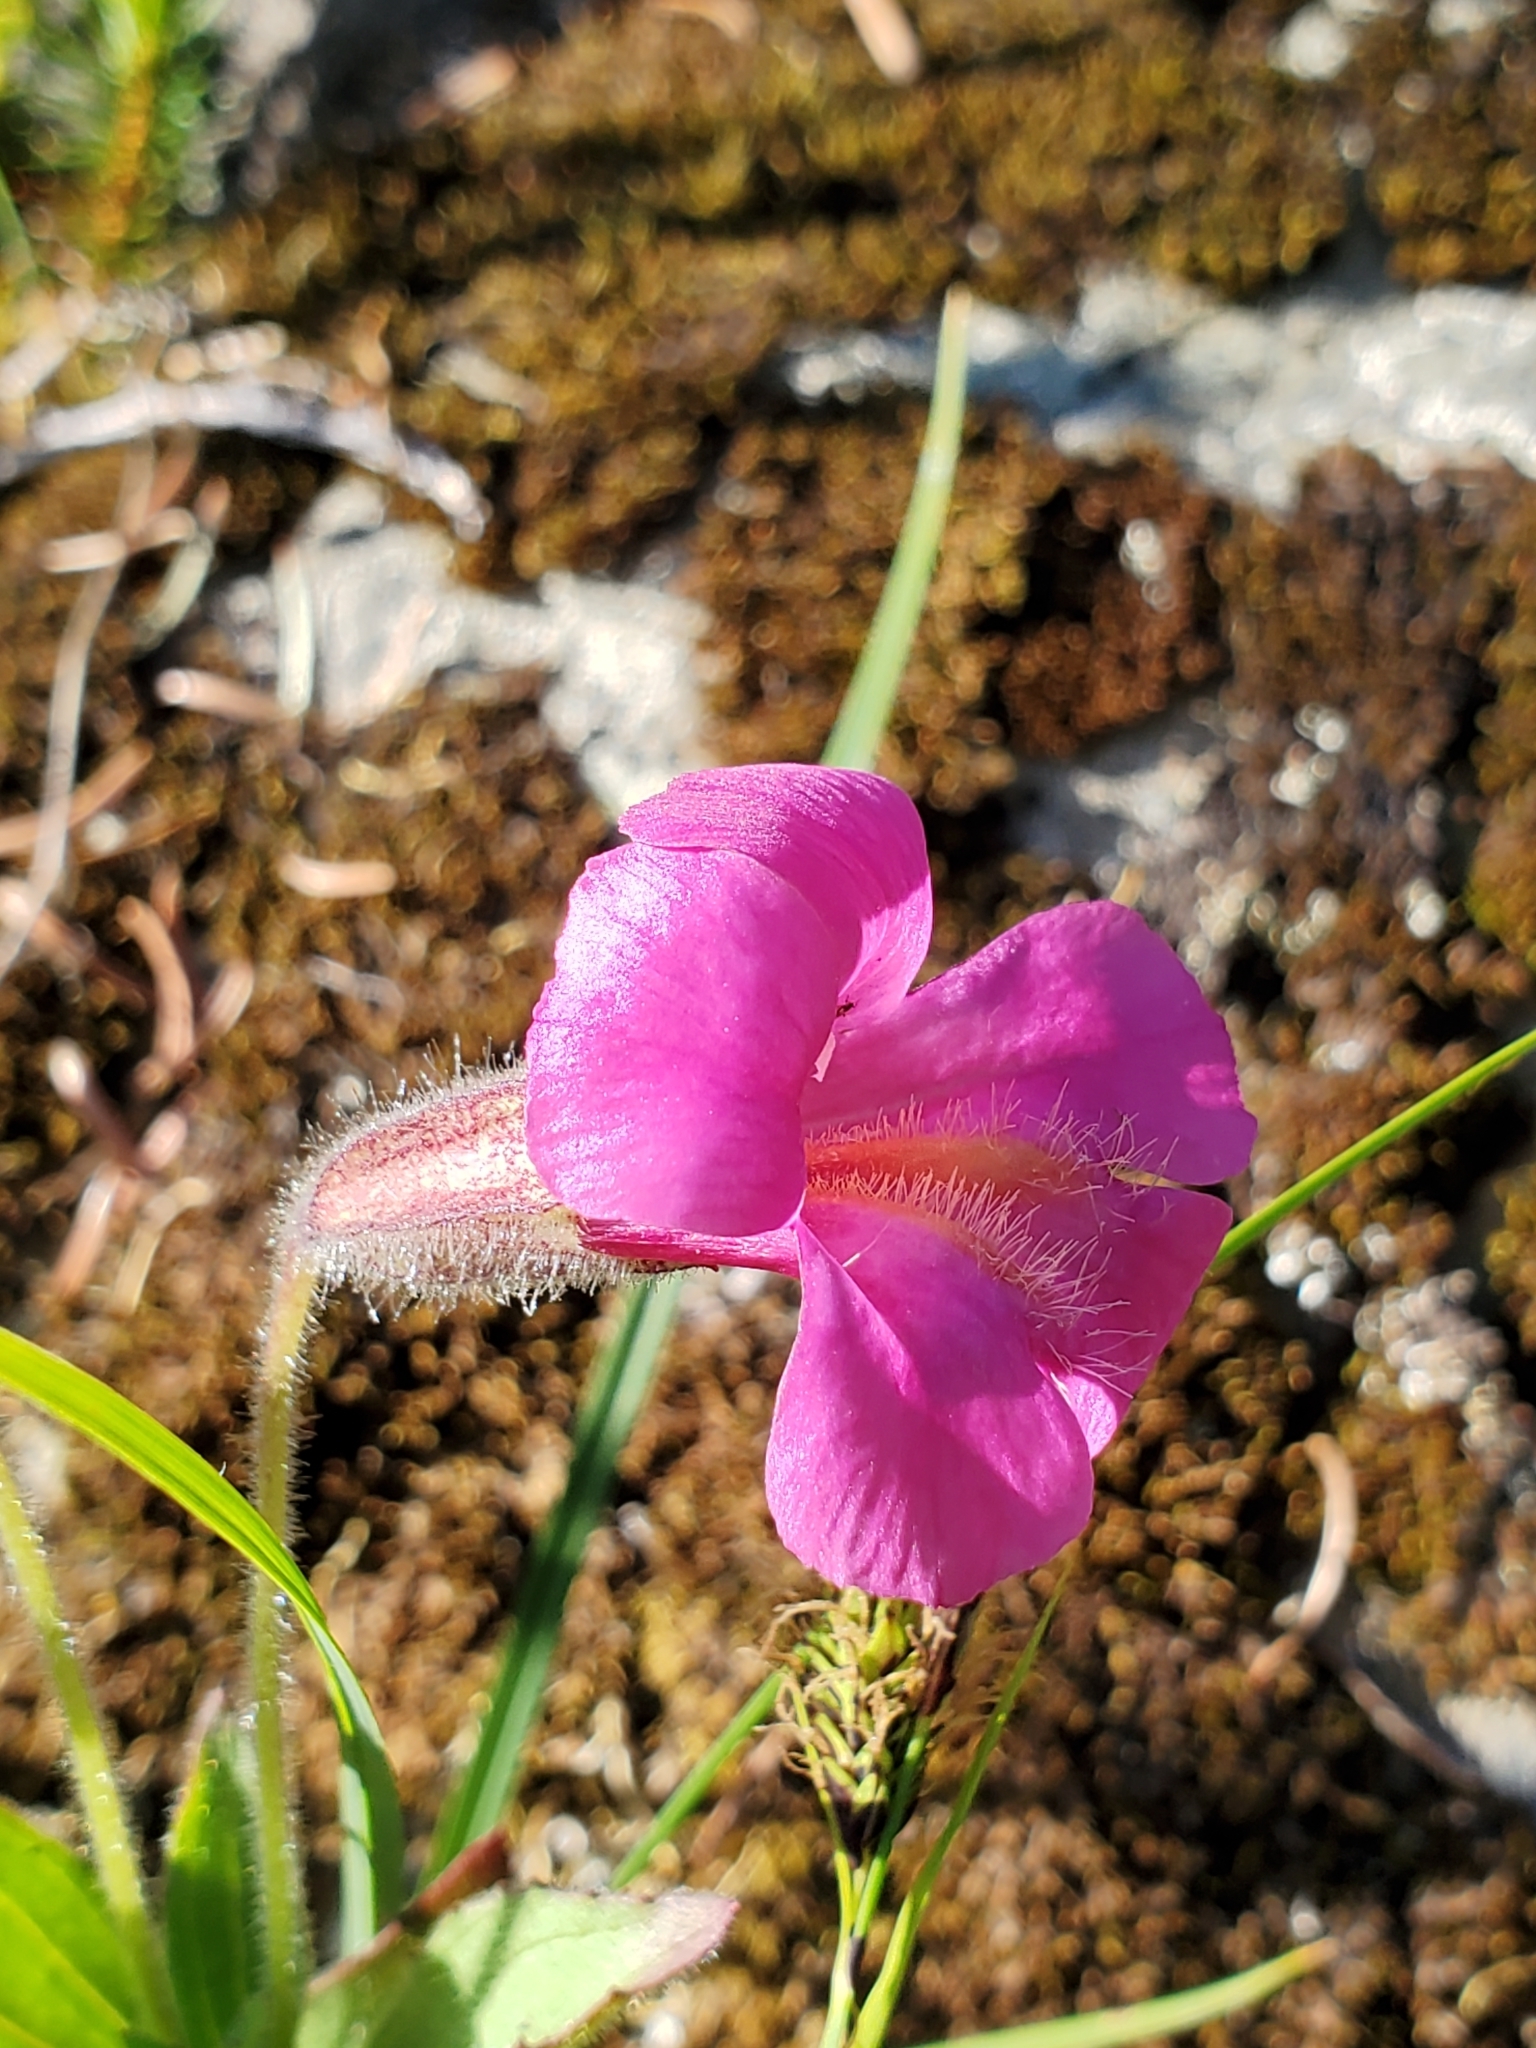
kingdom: Plantae
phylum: Tracheophyta
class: Magnoliopsida
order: Lamiales
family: Phrymaceae
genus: Erythranthe
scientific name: Erythranthe lewisii
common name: Lewis's monkey-flower
